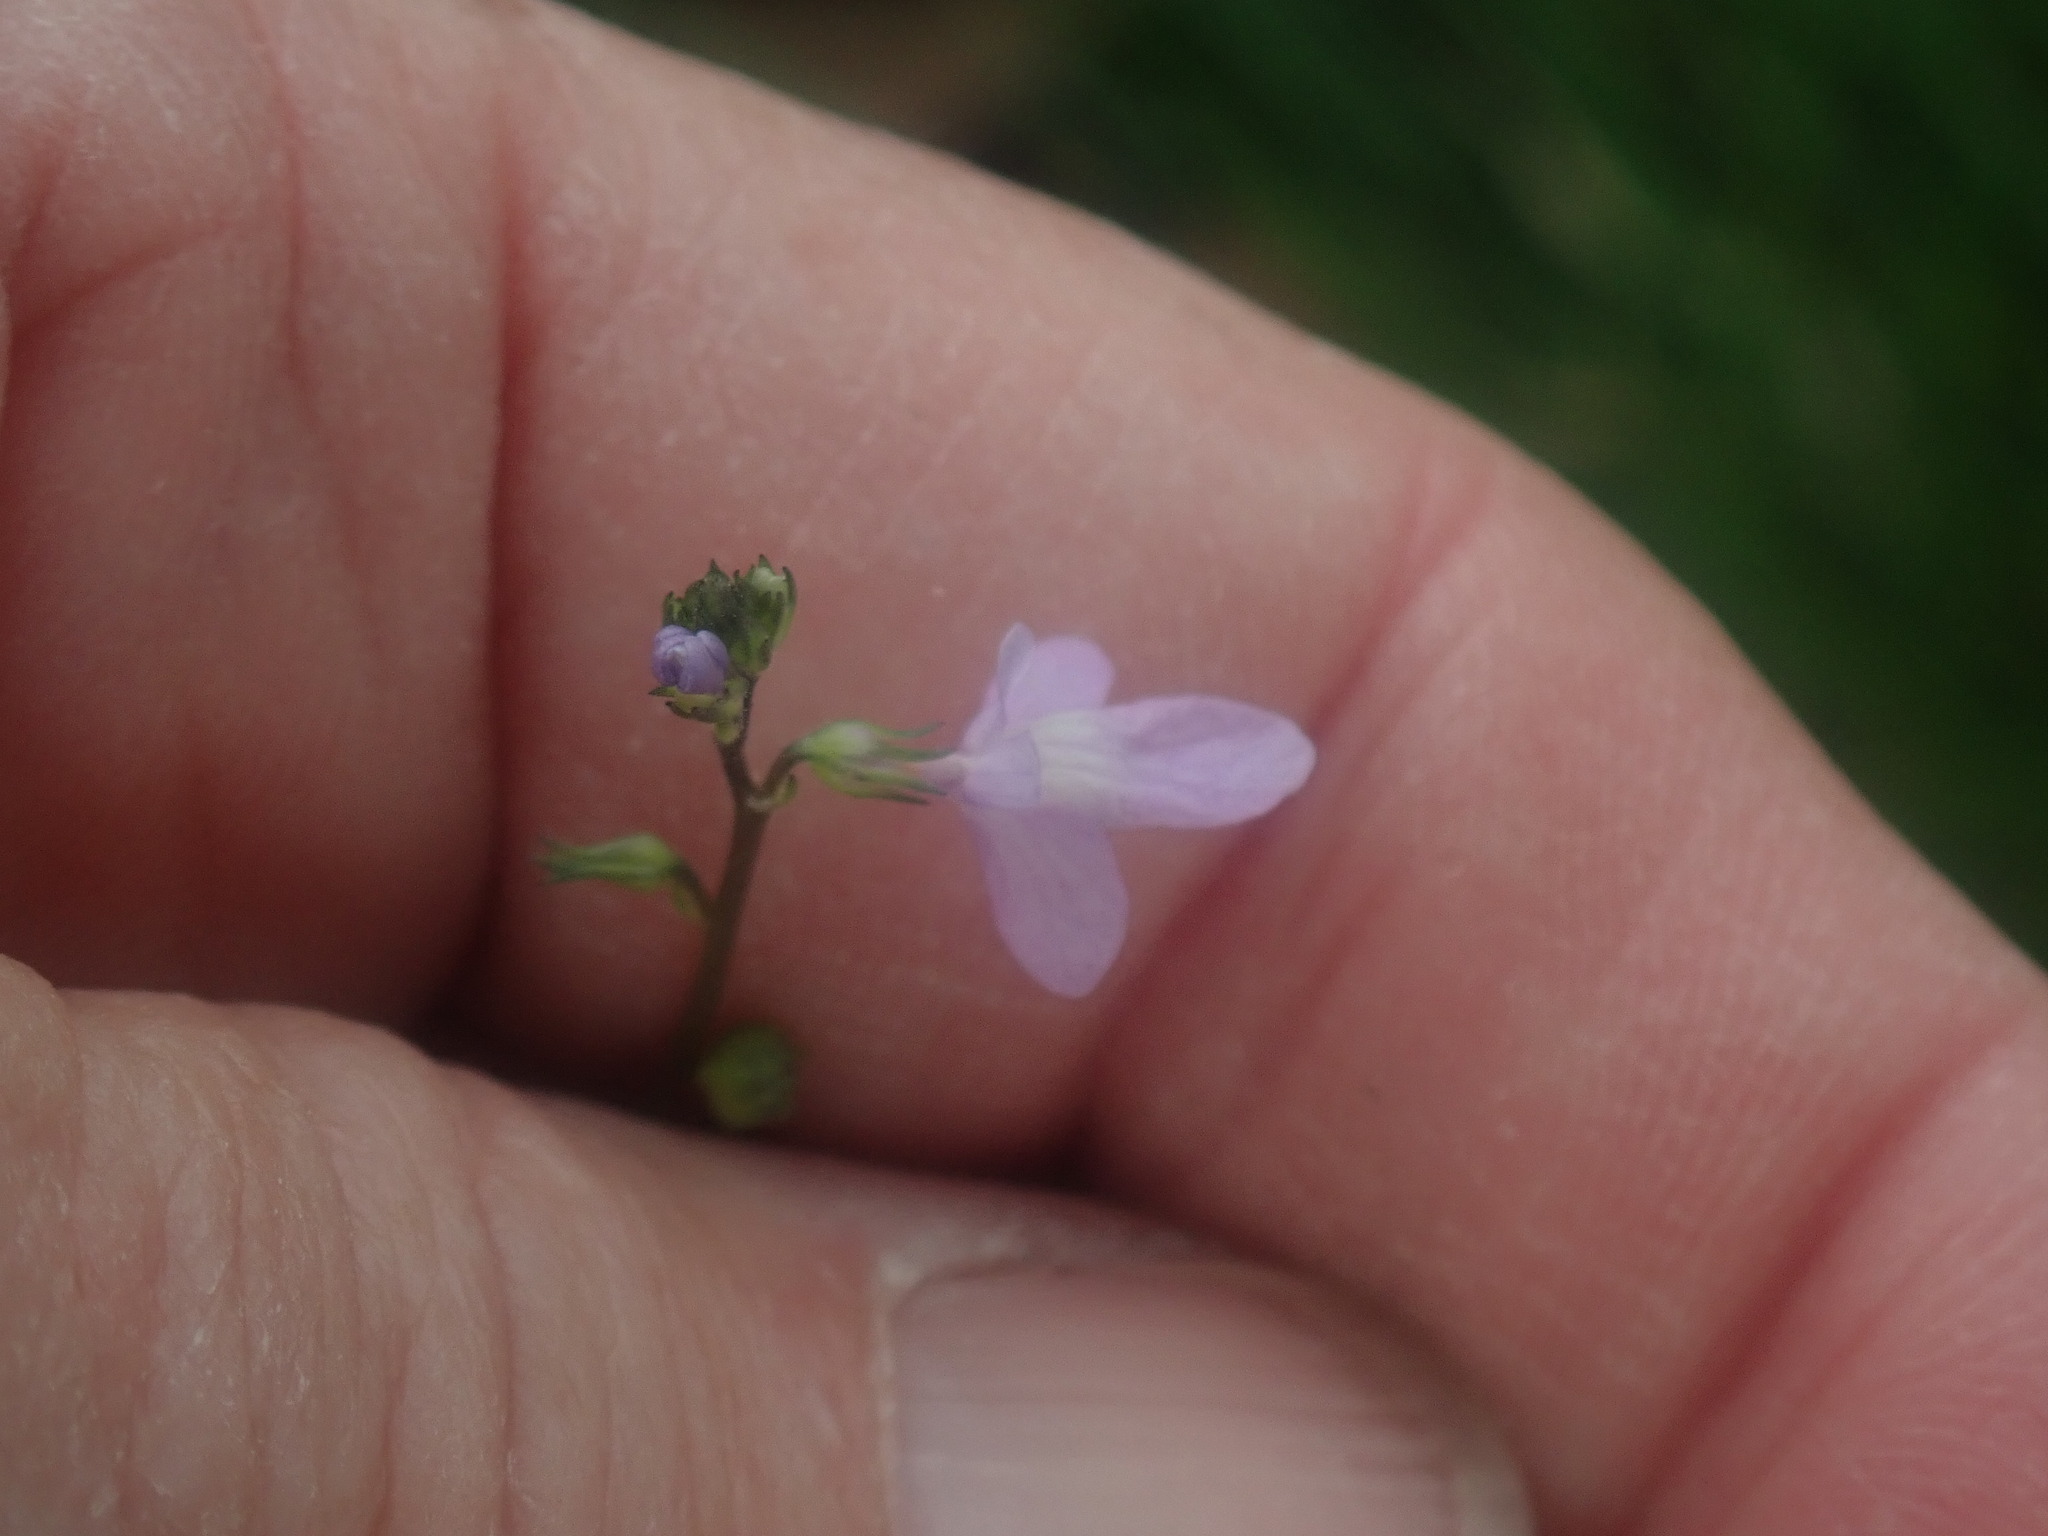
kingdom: Plantae
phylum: Tracheophyta
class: Magnoliopsida
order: Lamiales
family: Plantaginaceae
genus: Nuttallanthus
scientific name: Nuttallanthus canadensis
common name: Blue toadflax
